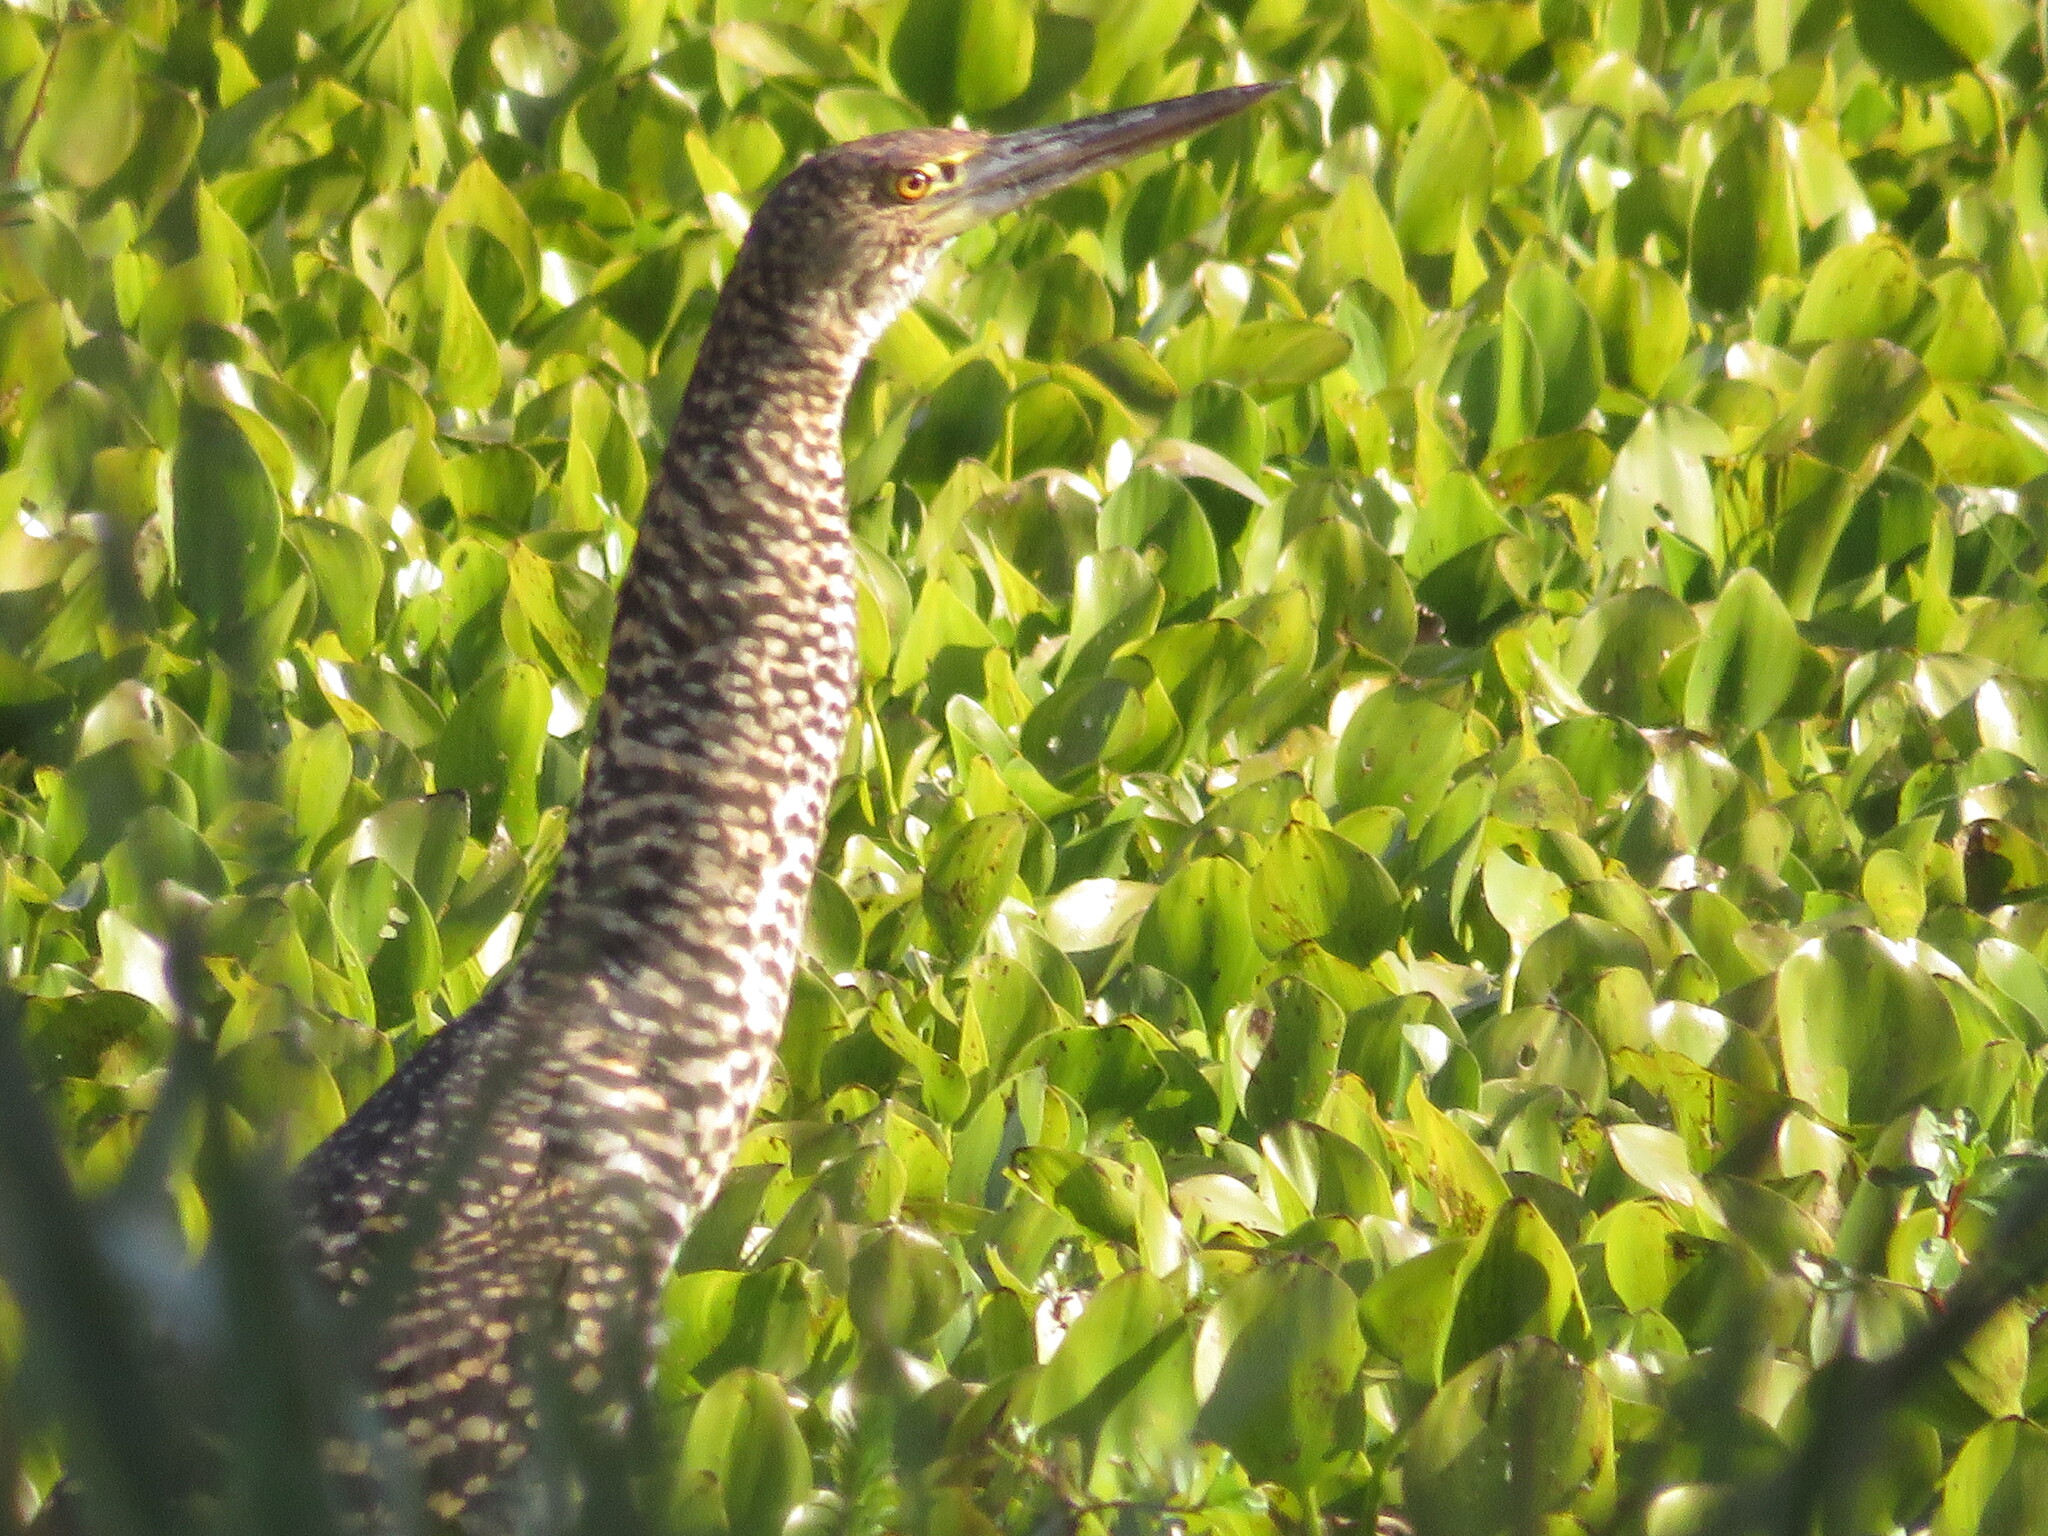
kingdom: Animalia
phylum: Chordata
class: Aves
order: Pelecaniformes
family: Ardeidae
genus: Tigrisoma
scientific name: Tigrisoma lineatum
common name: Rufescent tiger-heron
